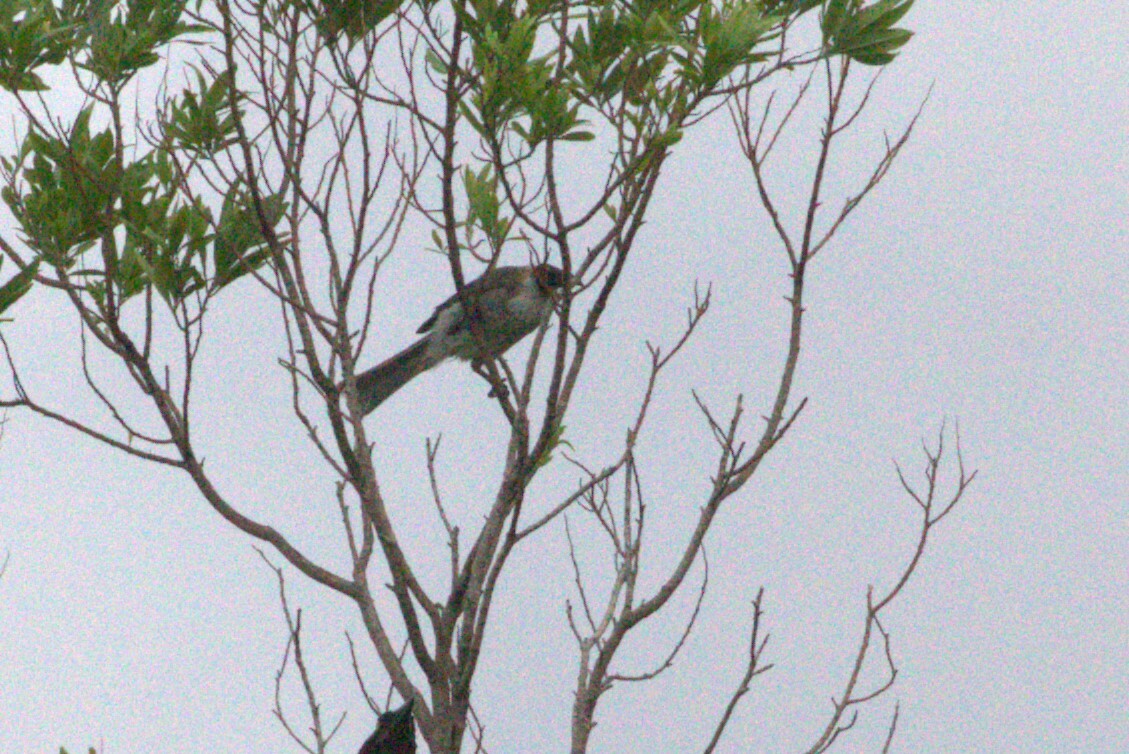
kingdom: Animalia
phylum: Chordata
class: Aves
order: Passeriformes
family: Meliphagidae
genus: Philemon
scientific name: Philemon corniculatus
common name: Noisy friarbird
